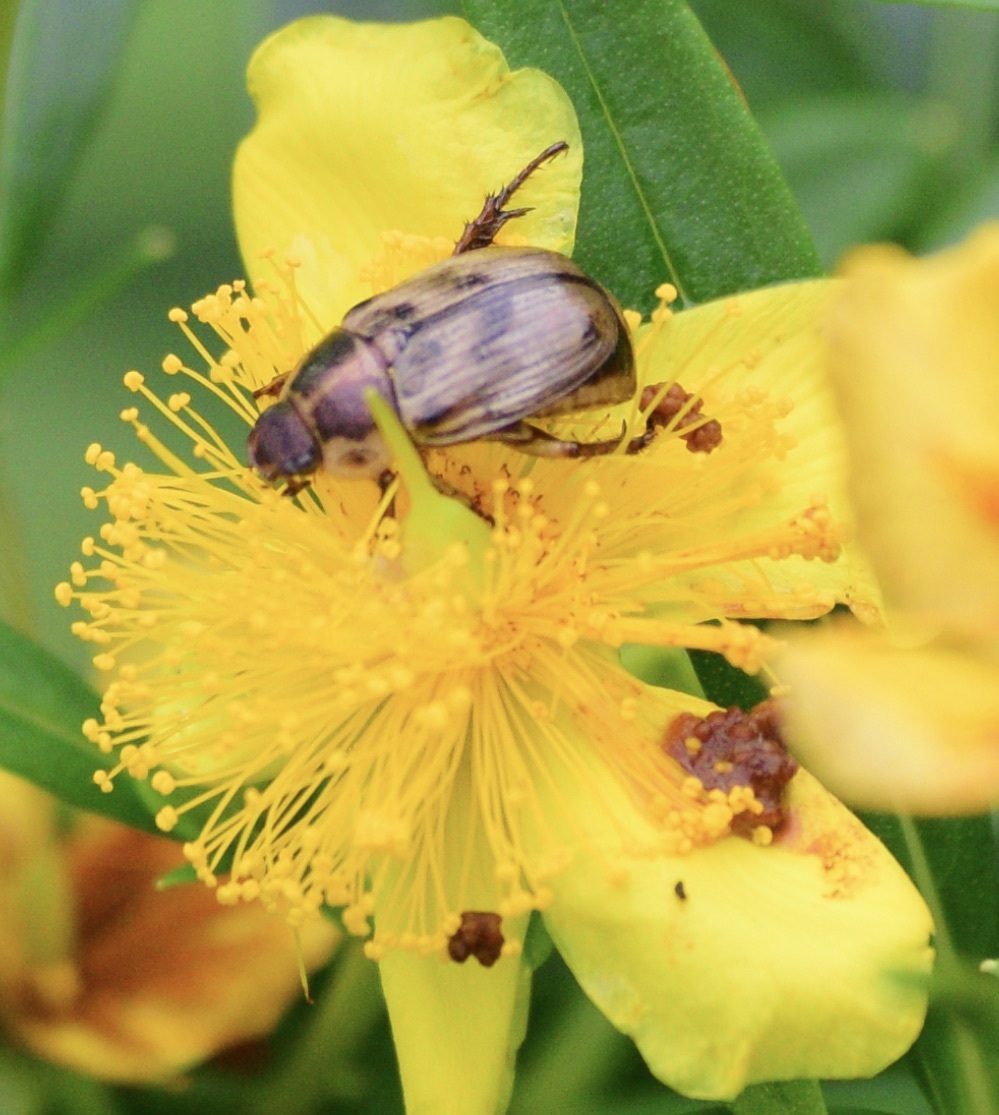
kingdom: Animalia
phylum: Arthropoda
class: Insecta
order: Coleoptera
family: Scarabaeidae
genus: Exomala
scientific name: Exomala orientalis
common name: Oriental beetle
